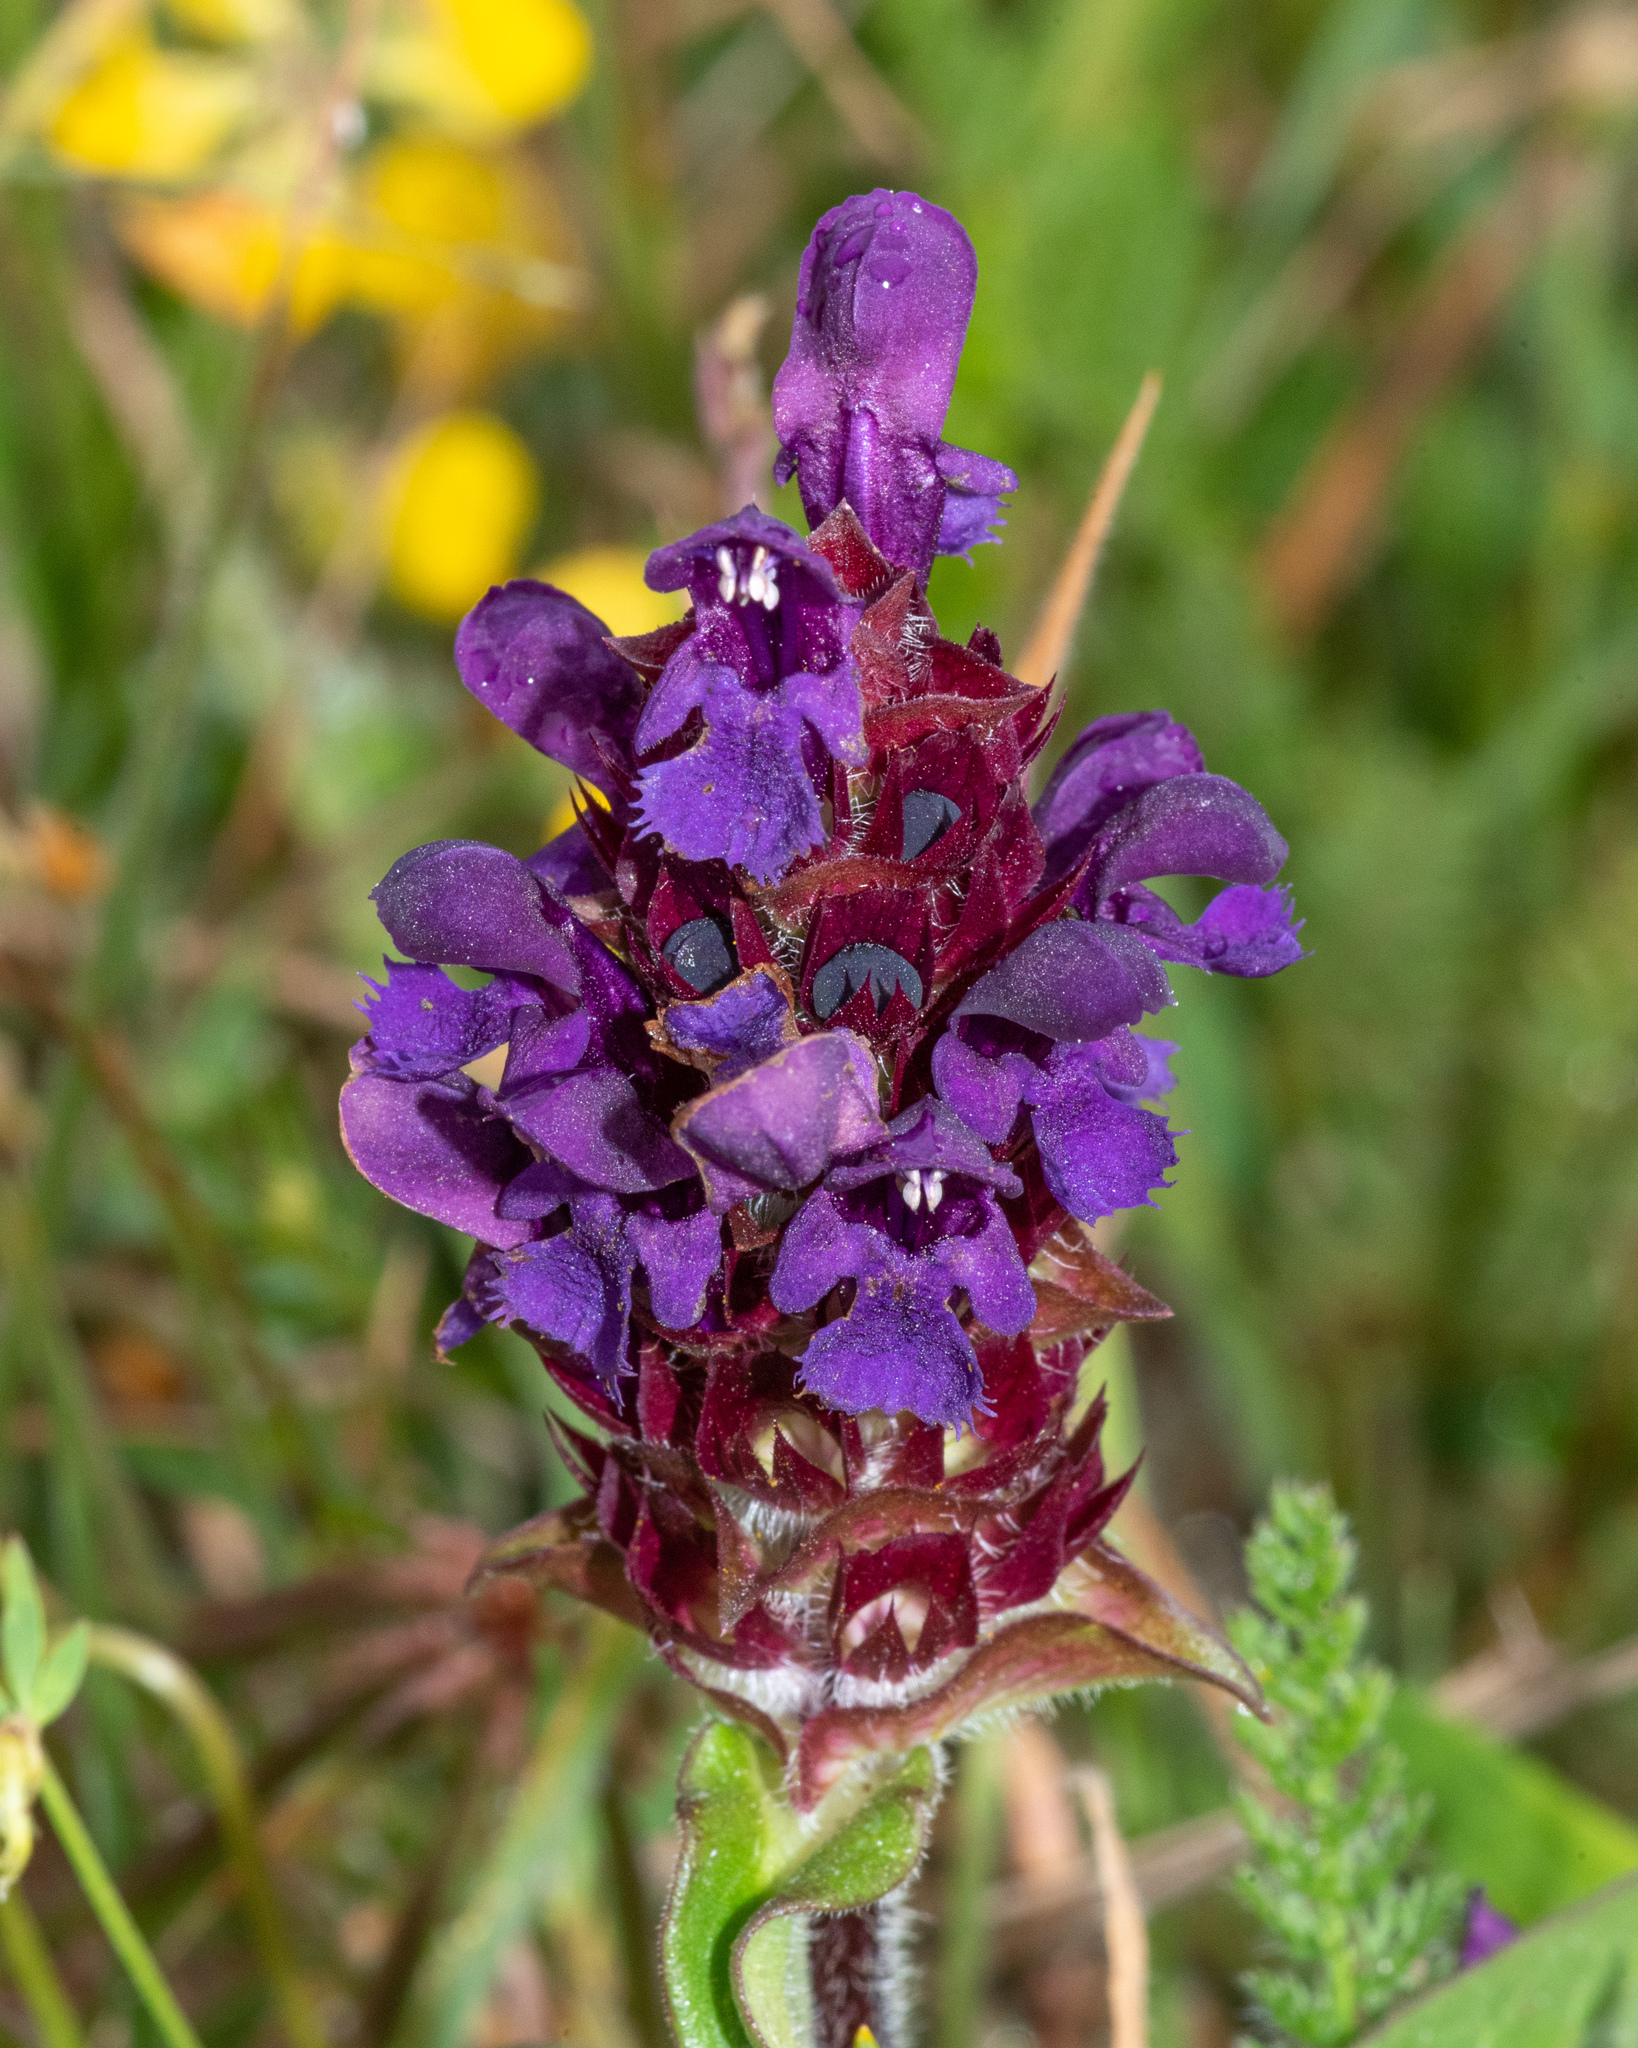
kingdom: Plantae
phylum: Tracheophyta
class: Magnoliopsida
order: Lamiales
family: Lamiaceae
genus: Prunella
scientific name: Prunella vulgaris
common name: Heal-all
